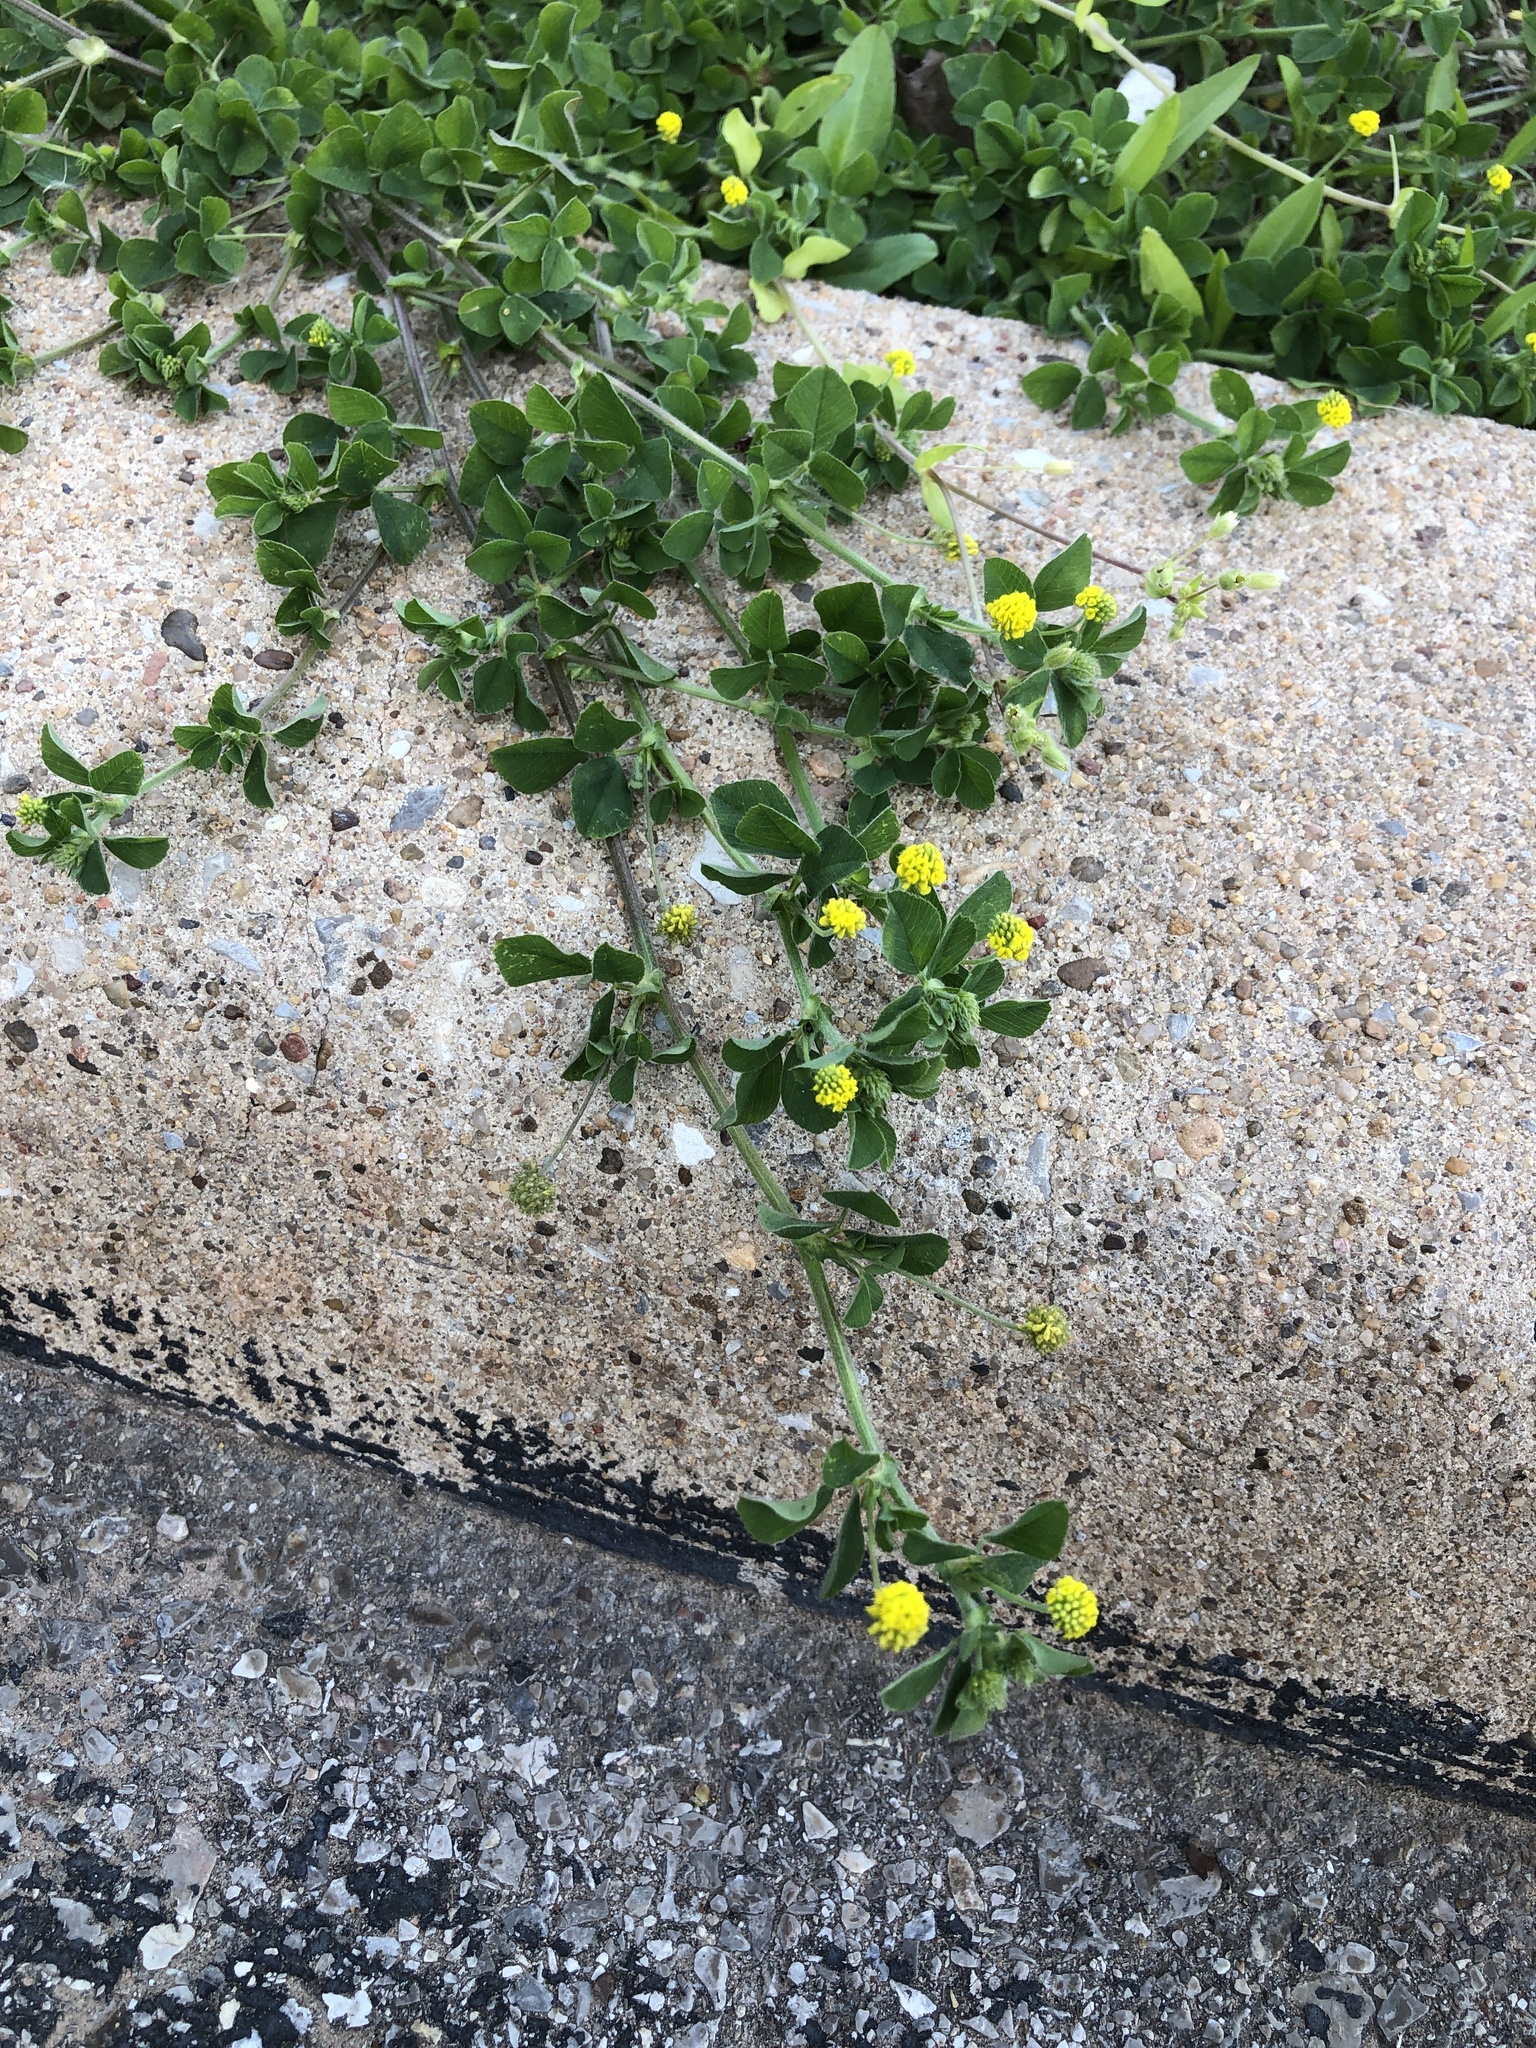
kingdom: Plantae
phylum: Tracheophyta
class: Magnoliopsida
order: Fabales
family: Fabaceae
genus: Medicago
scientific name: Medicago lupulina
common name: Black medick
